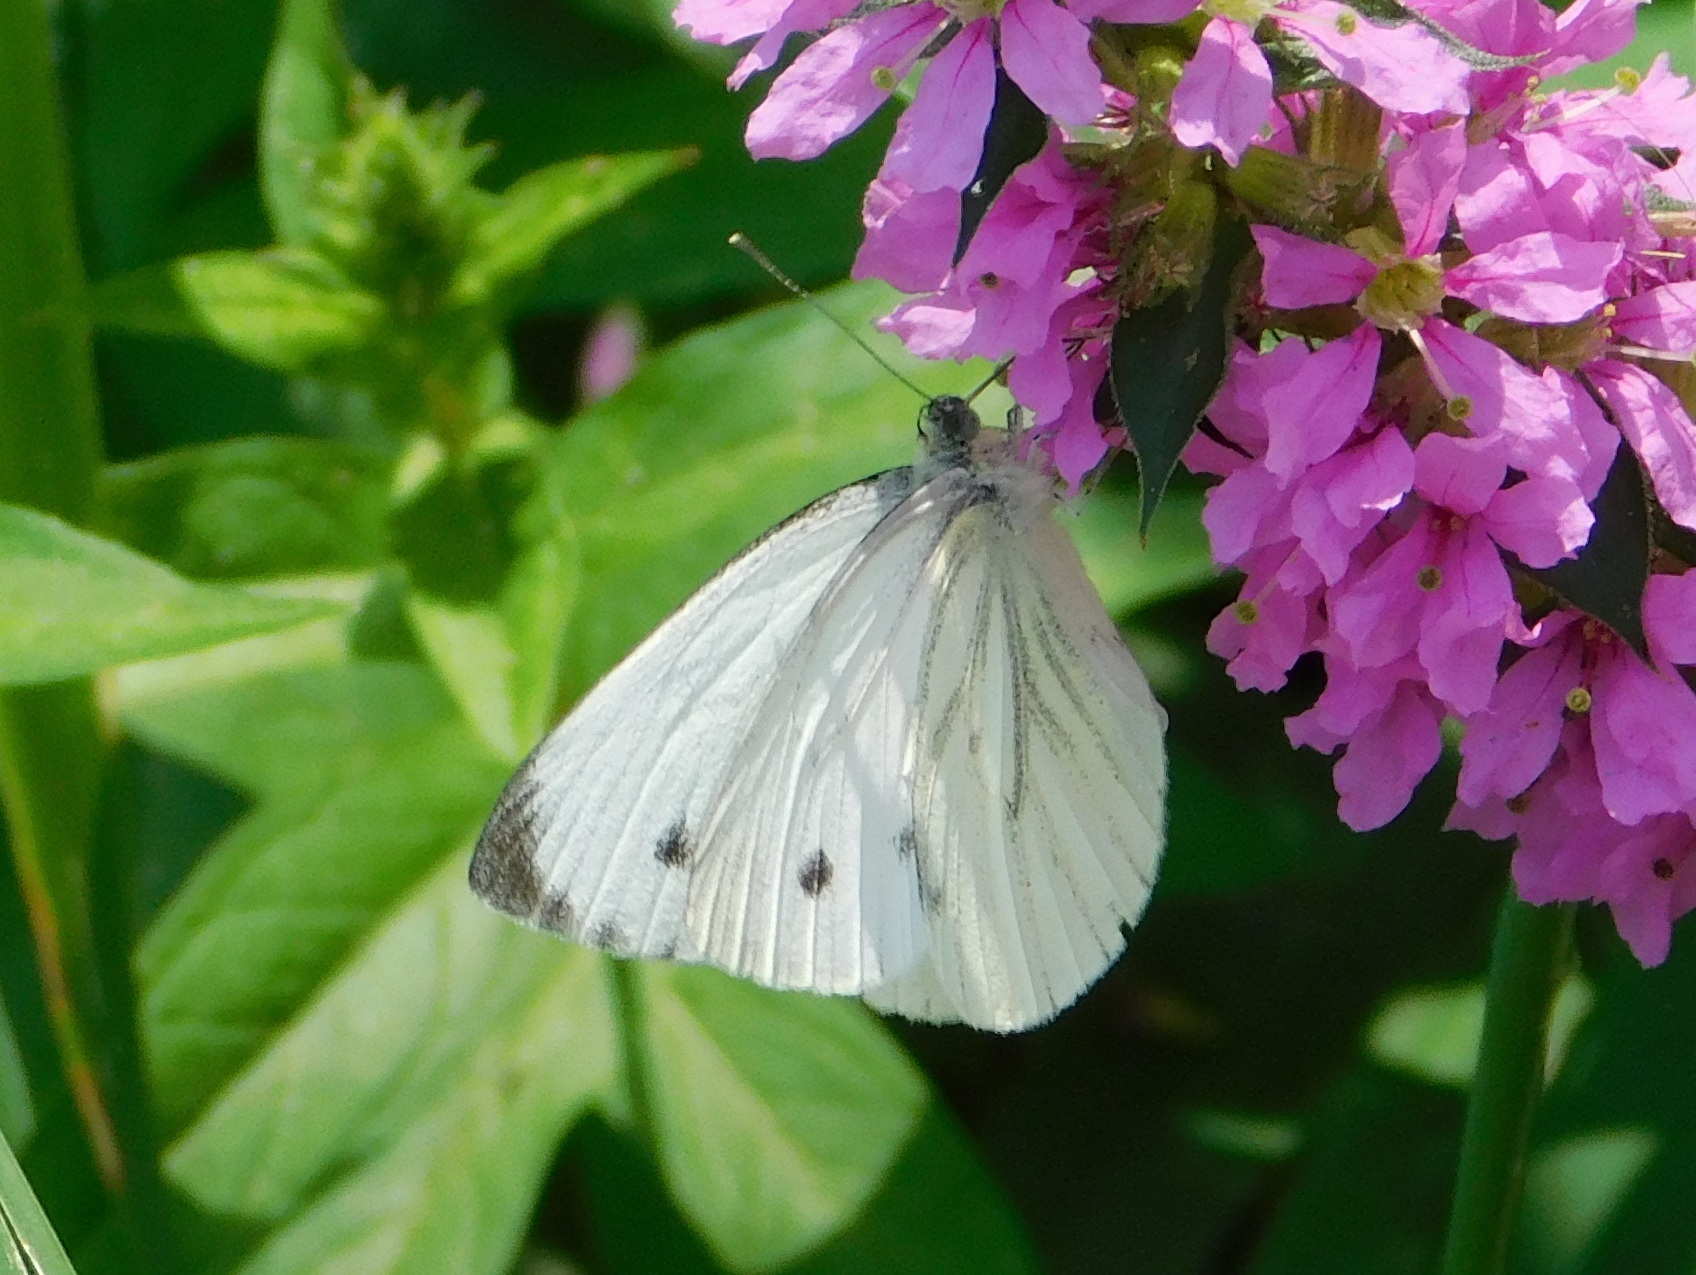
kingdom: Animalia
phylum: Arthropoda
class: Insecta
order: Lepidoptera
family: Pieridae
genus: Pieris
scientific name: Pieris napi
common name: Green-veined white
